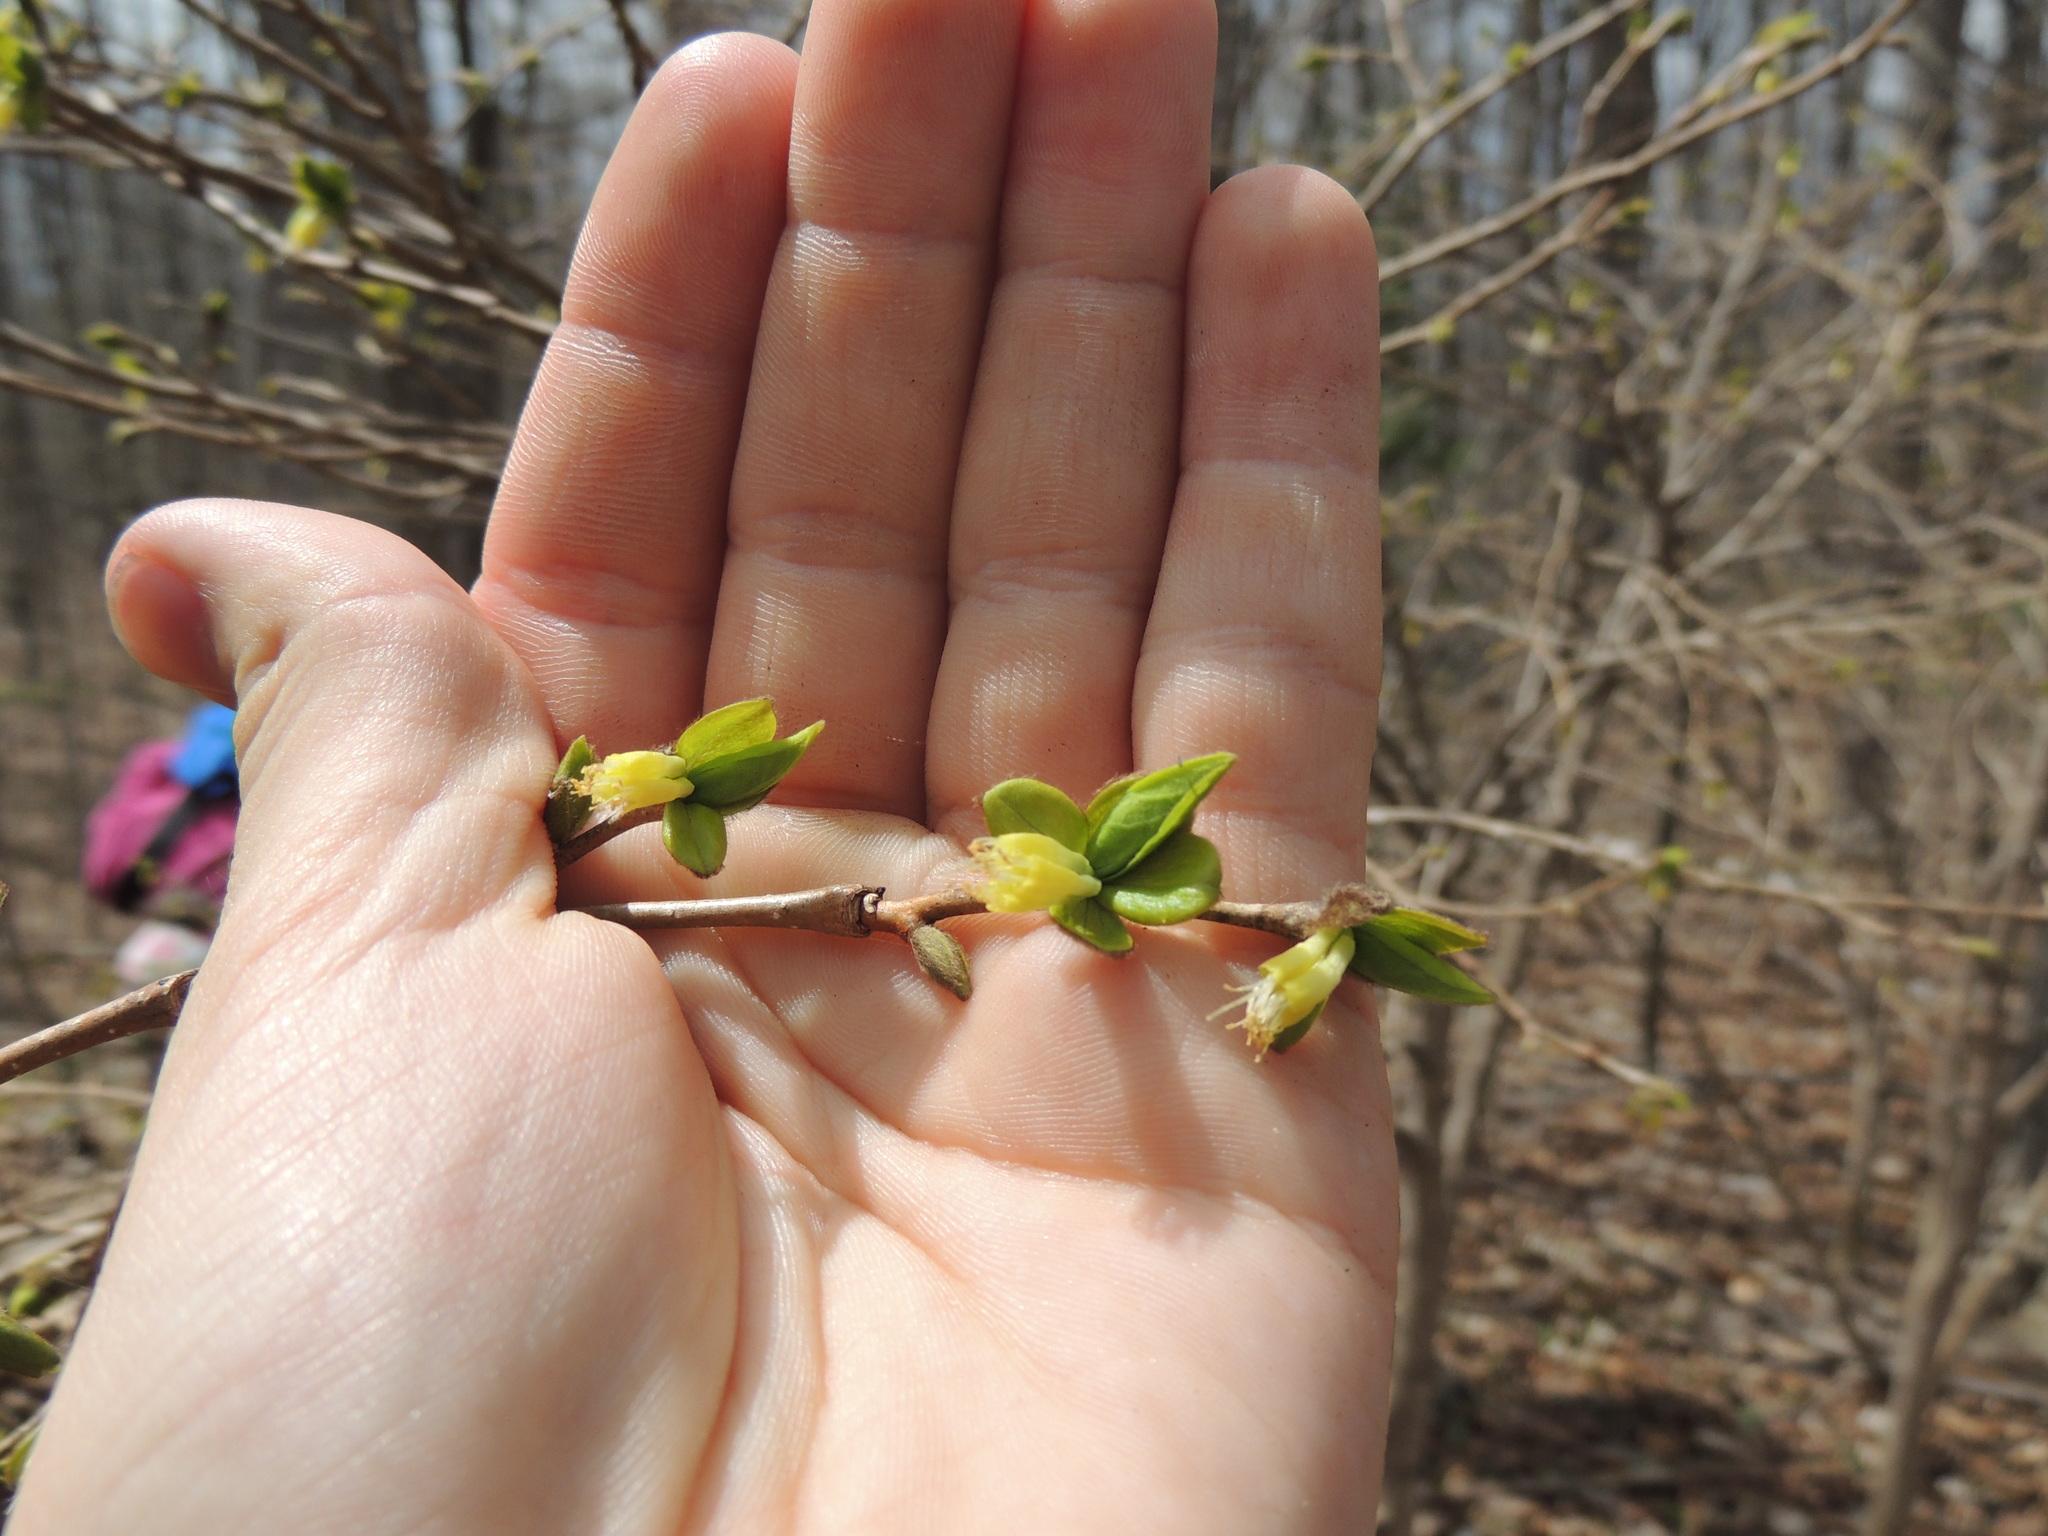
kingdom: Plantae
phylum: Tracheophyta
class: Magnoliopsida
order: Malvales
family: Thymelaeaceae
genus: Dirca
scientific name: Dirca palustris
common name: Leatherwood
